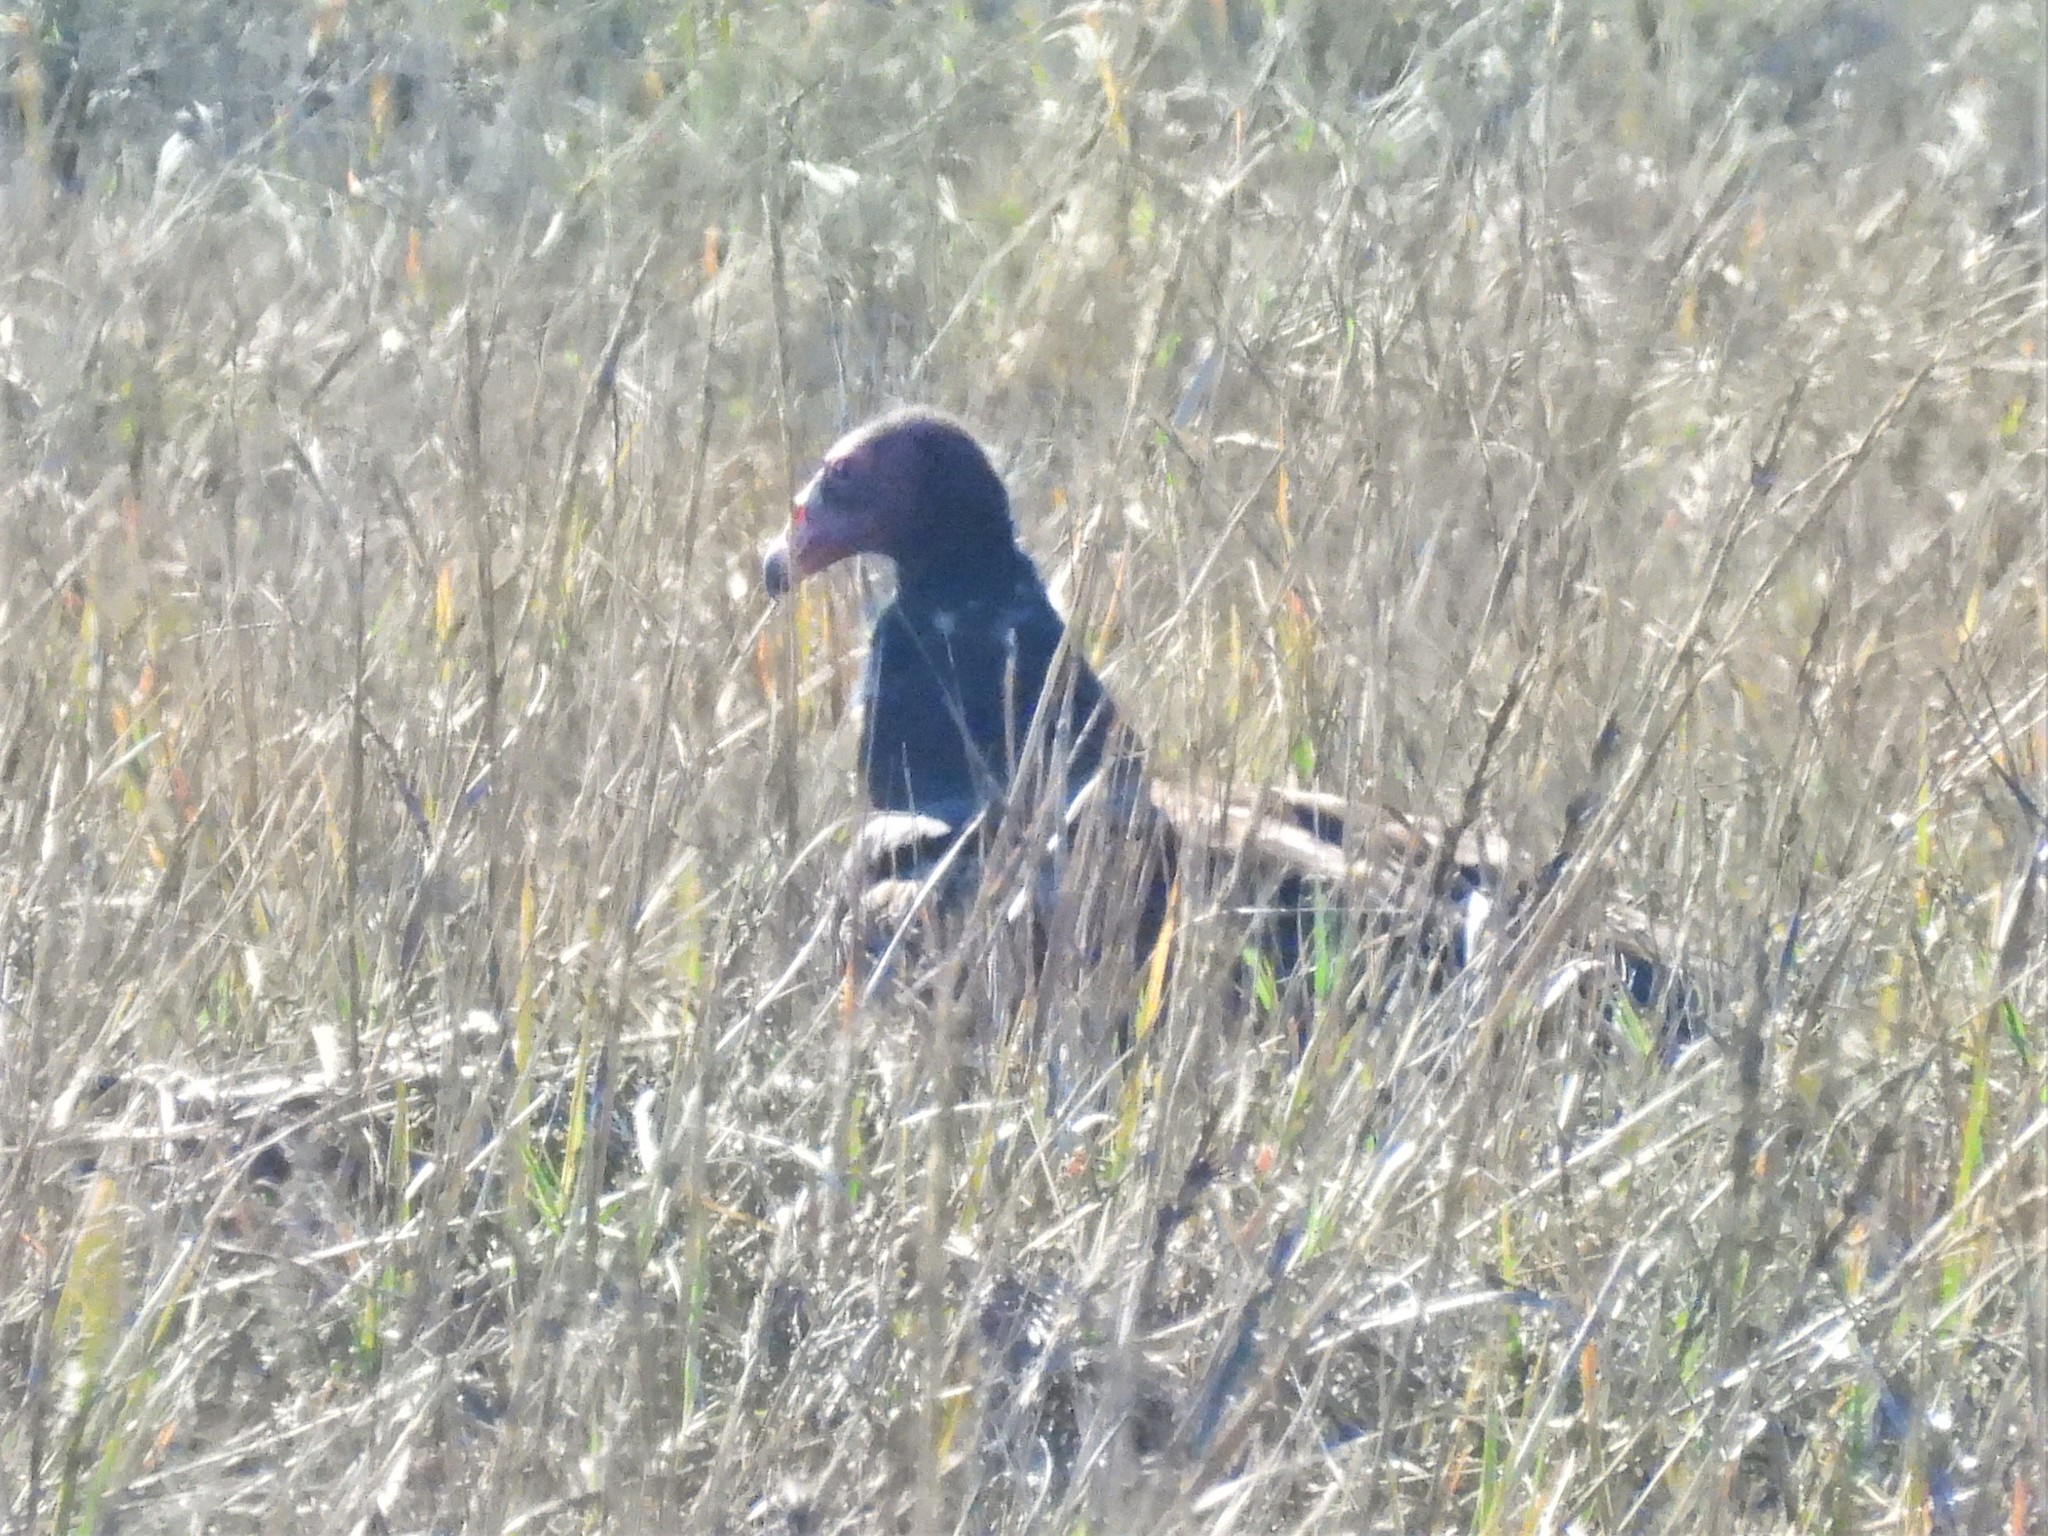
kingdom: Animalia
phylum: Chordata
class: Aves
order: Accipitriformes
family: Cathartidae
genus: Cathartes
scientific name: Cathartes aura
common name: Turkey vulture
